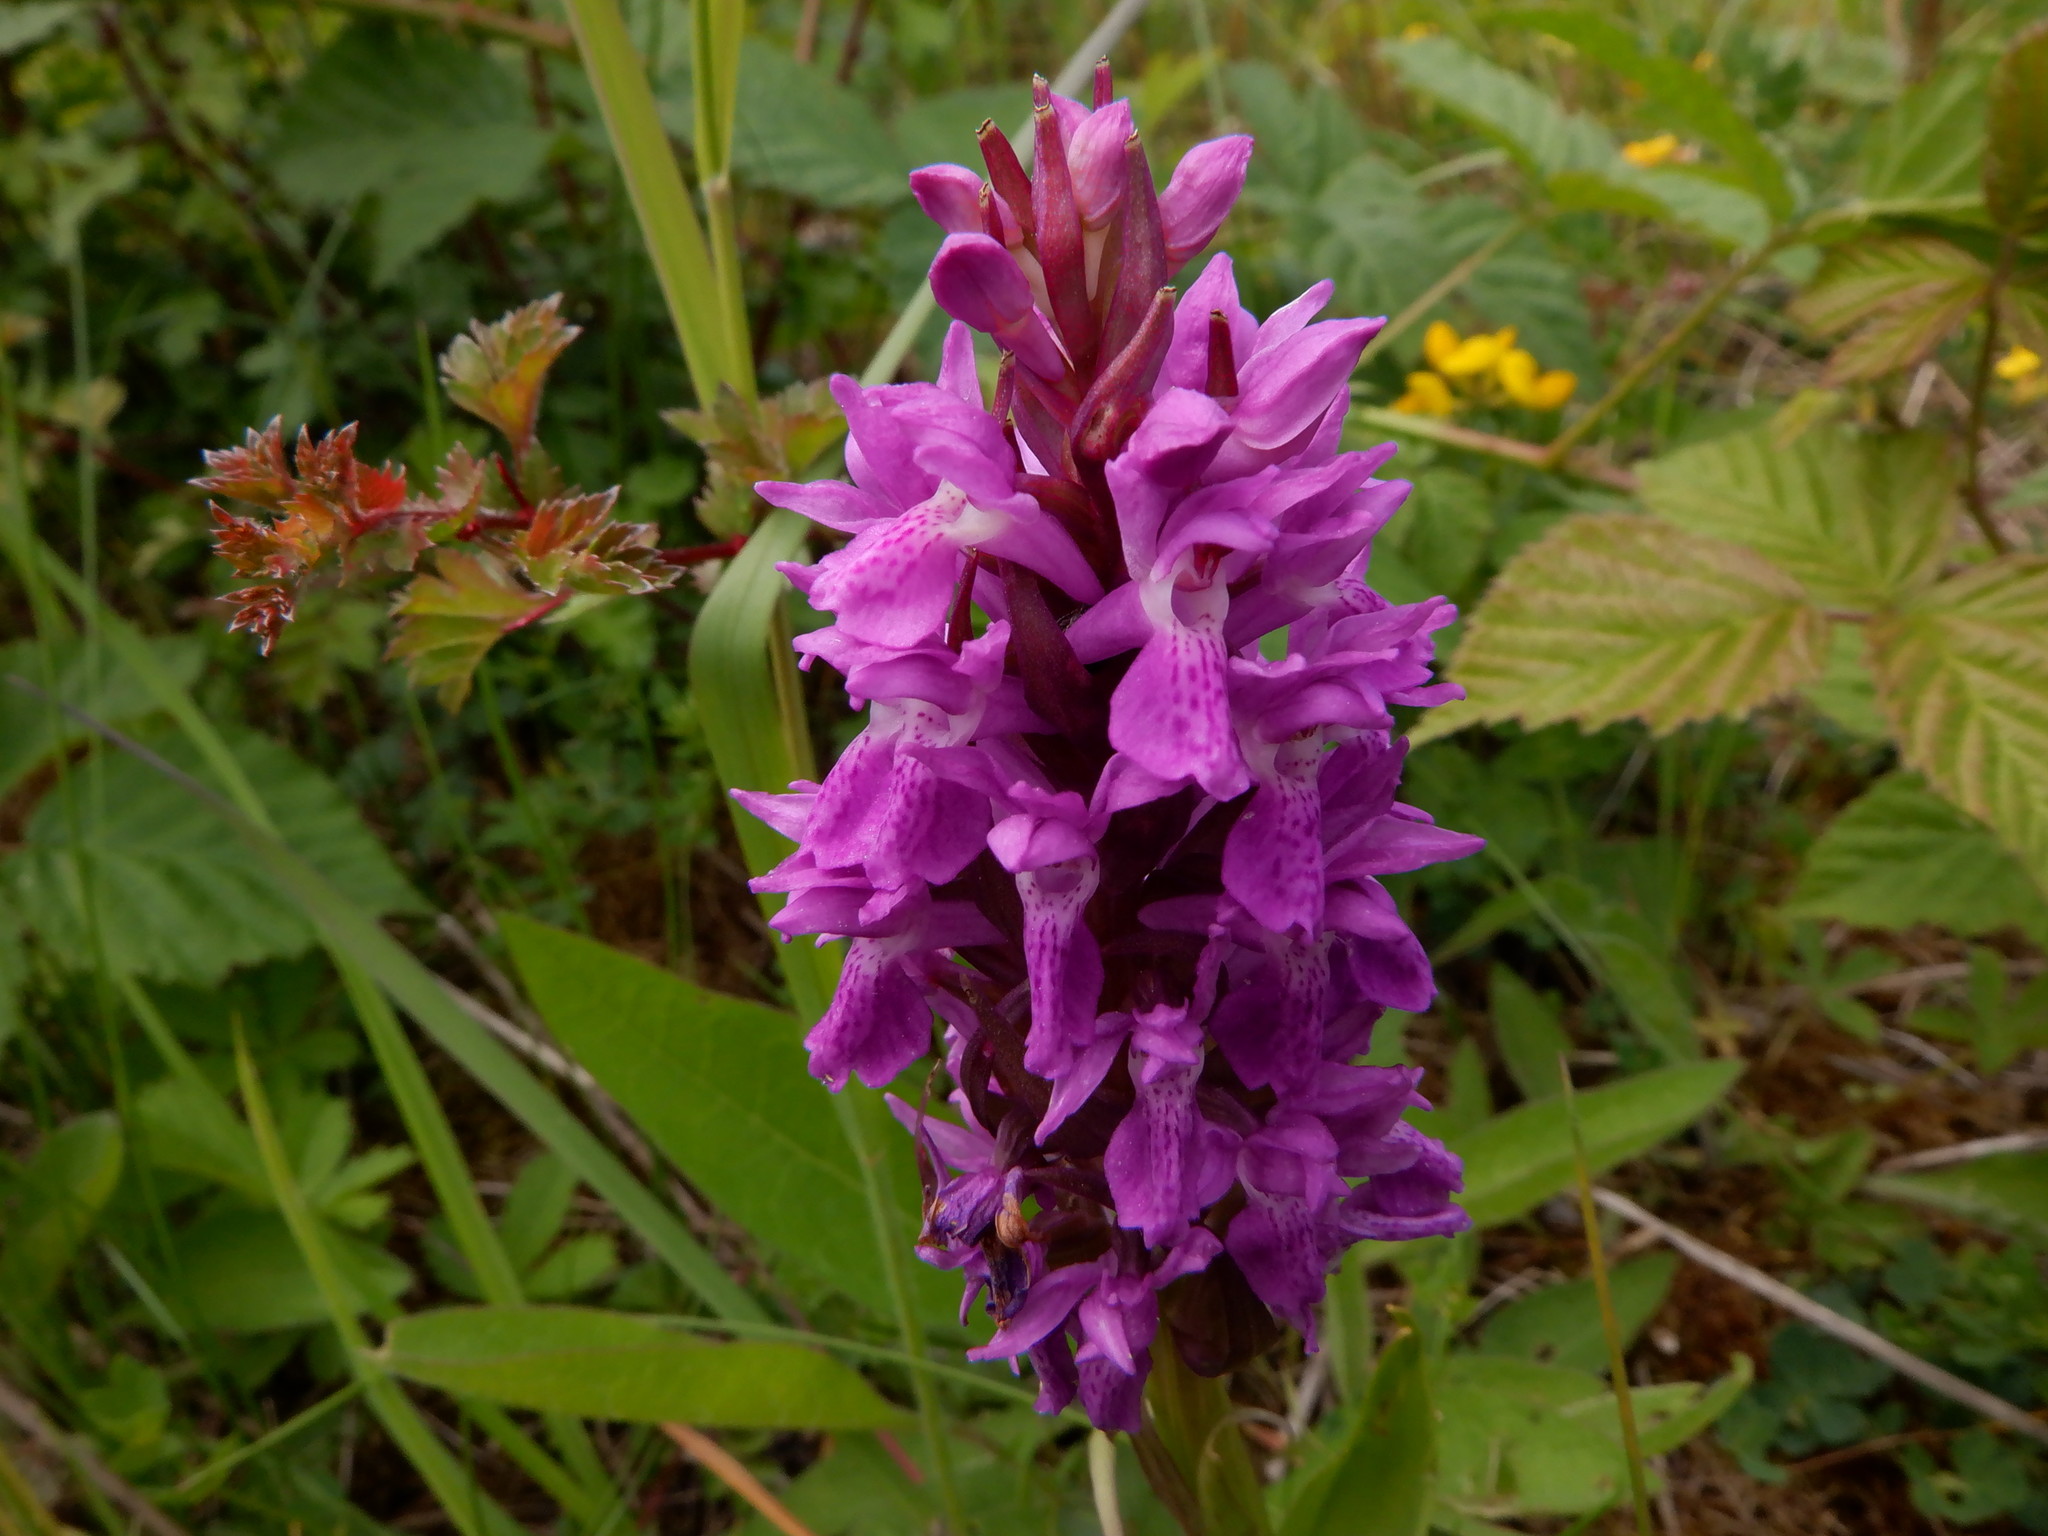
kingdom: Plantae
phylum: Tracheophyta
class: Liliopsida
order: Asparagales
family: Orchidaceae
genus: Dactylorhiza
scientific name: Dactylorhiza majalis
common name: Marsh orchid
